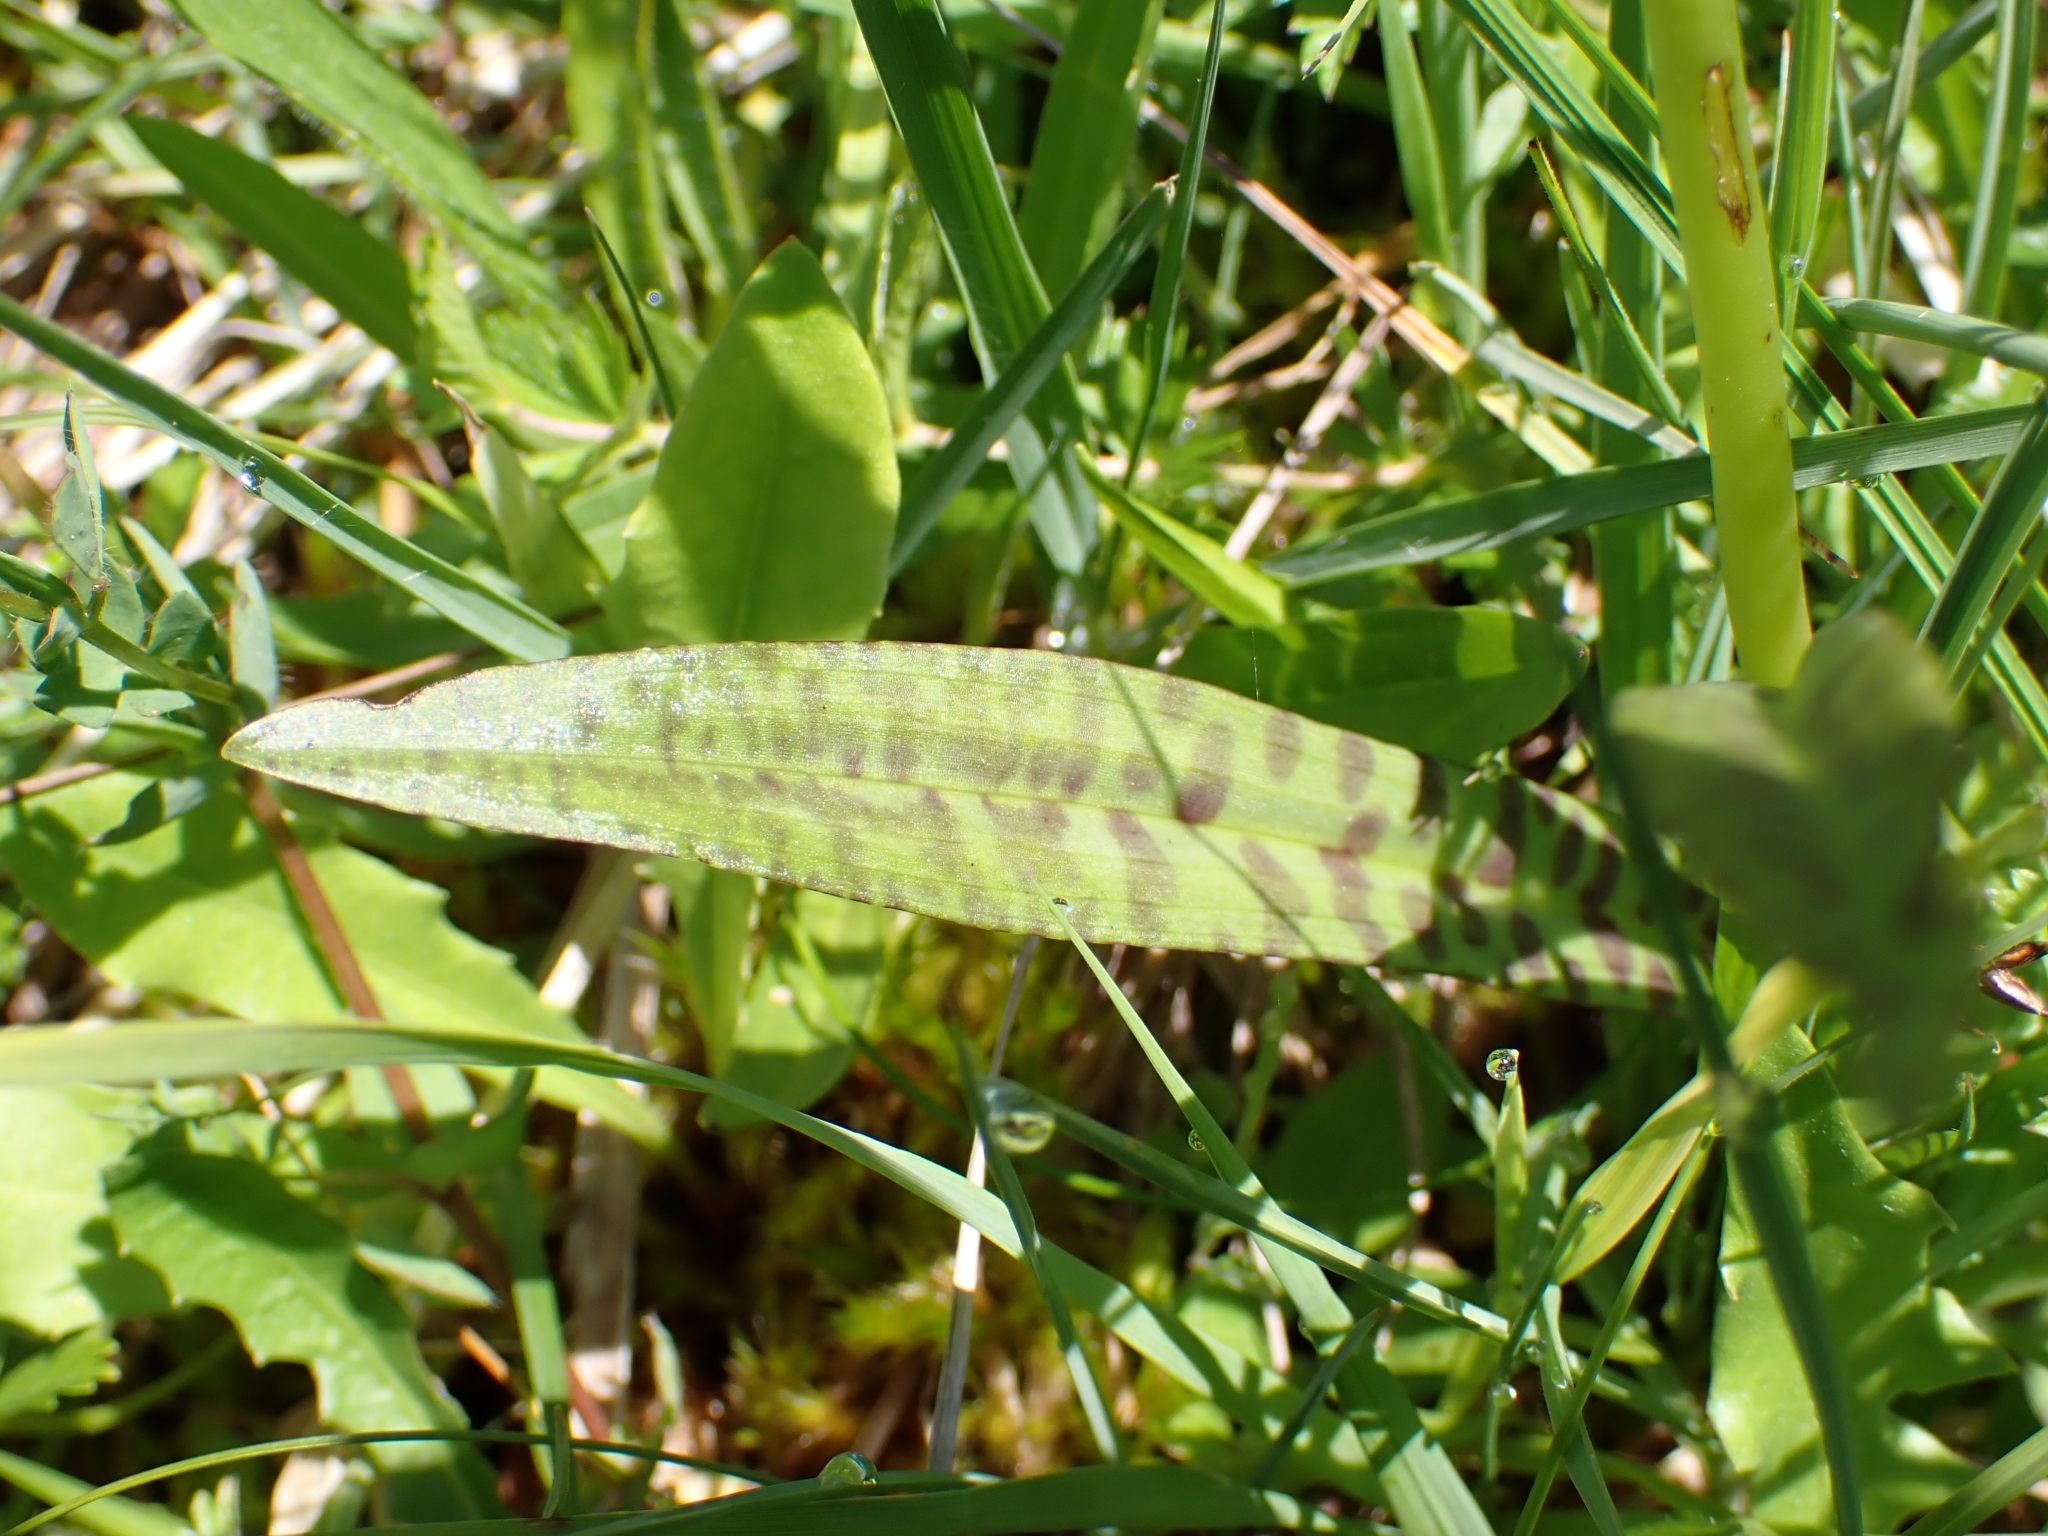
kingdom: Plantae
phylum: Tracheophyta
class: Liliopsida
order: Asparagales
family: Orchidaceae
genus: Dactylorhiza
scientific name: Dactylorhiza maculata
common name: Heath spotted-orchid
